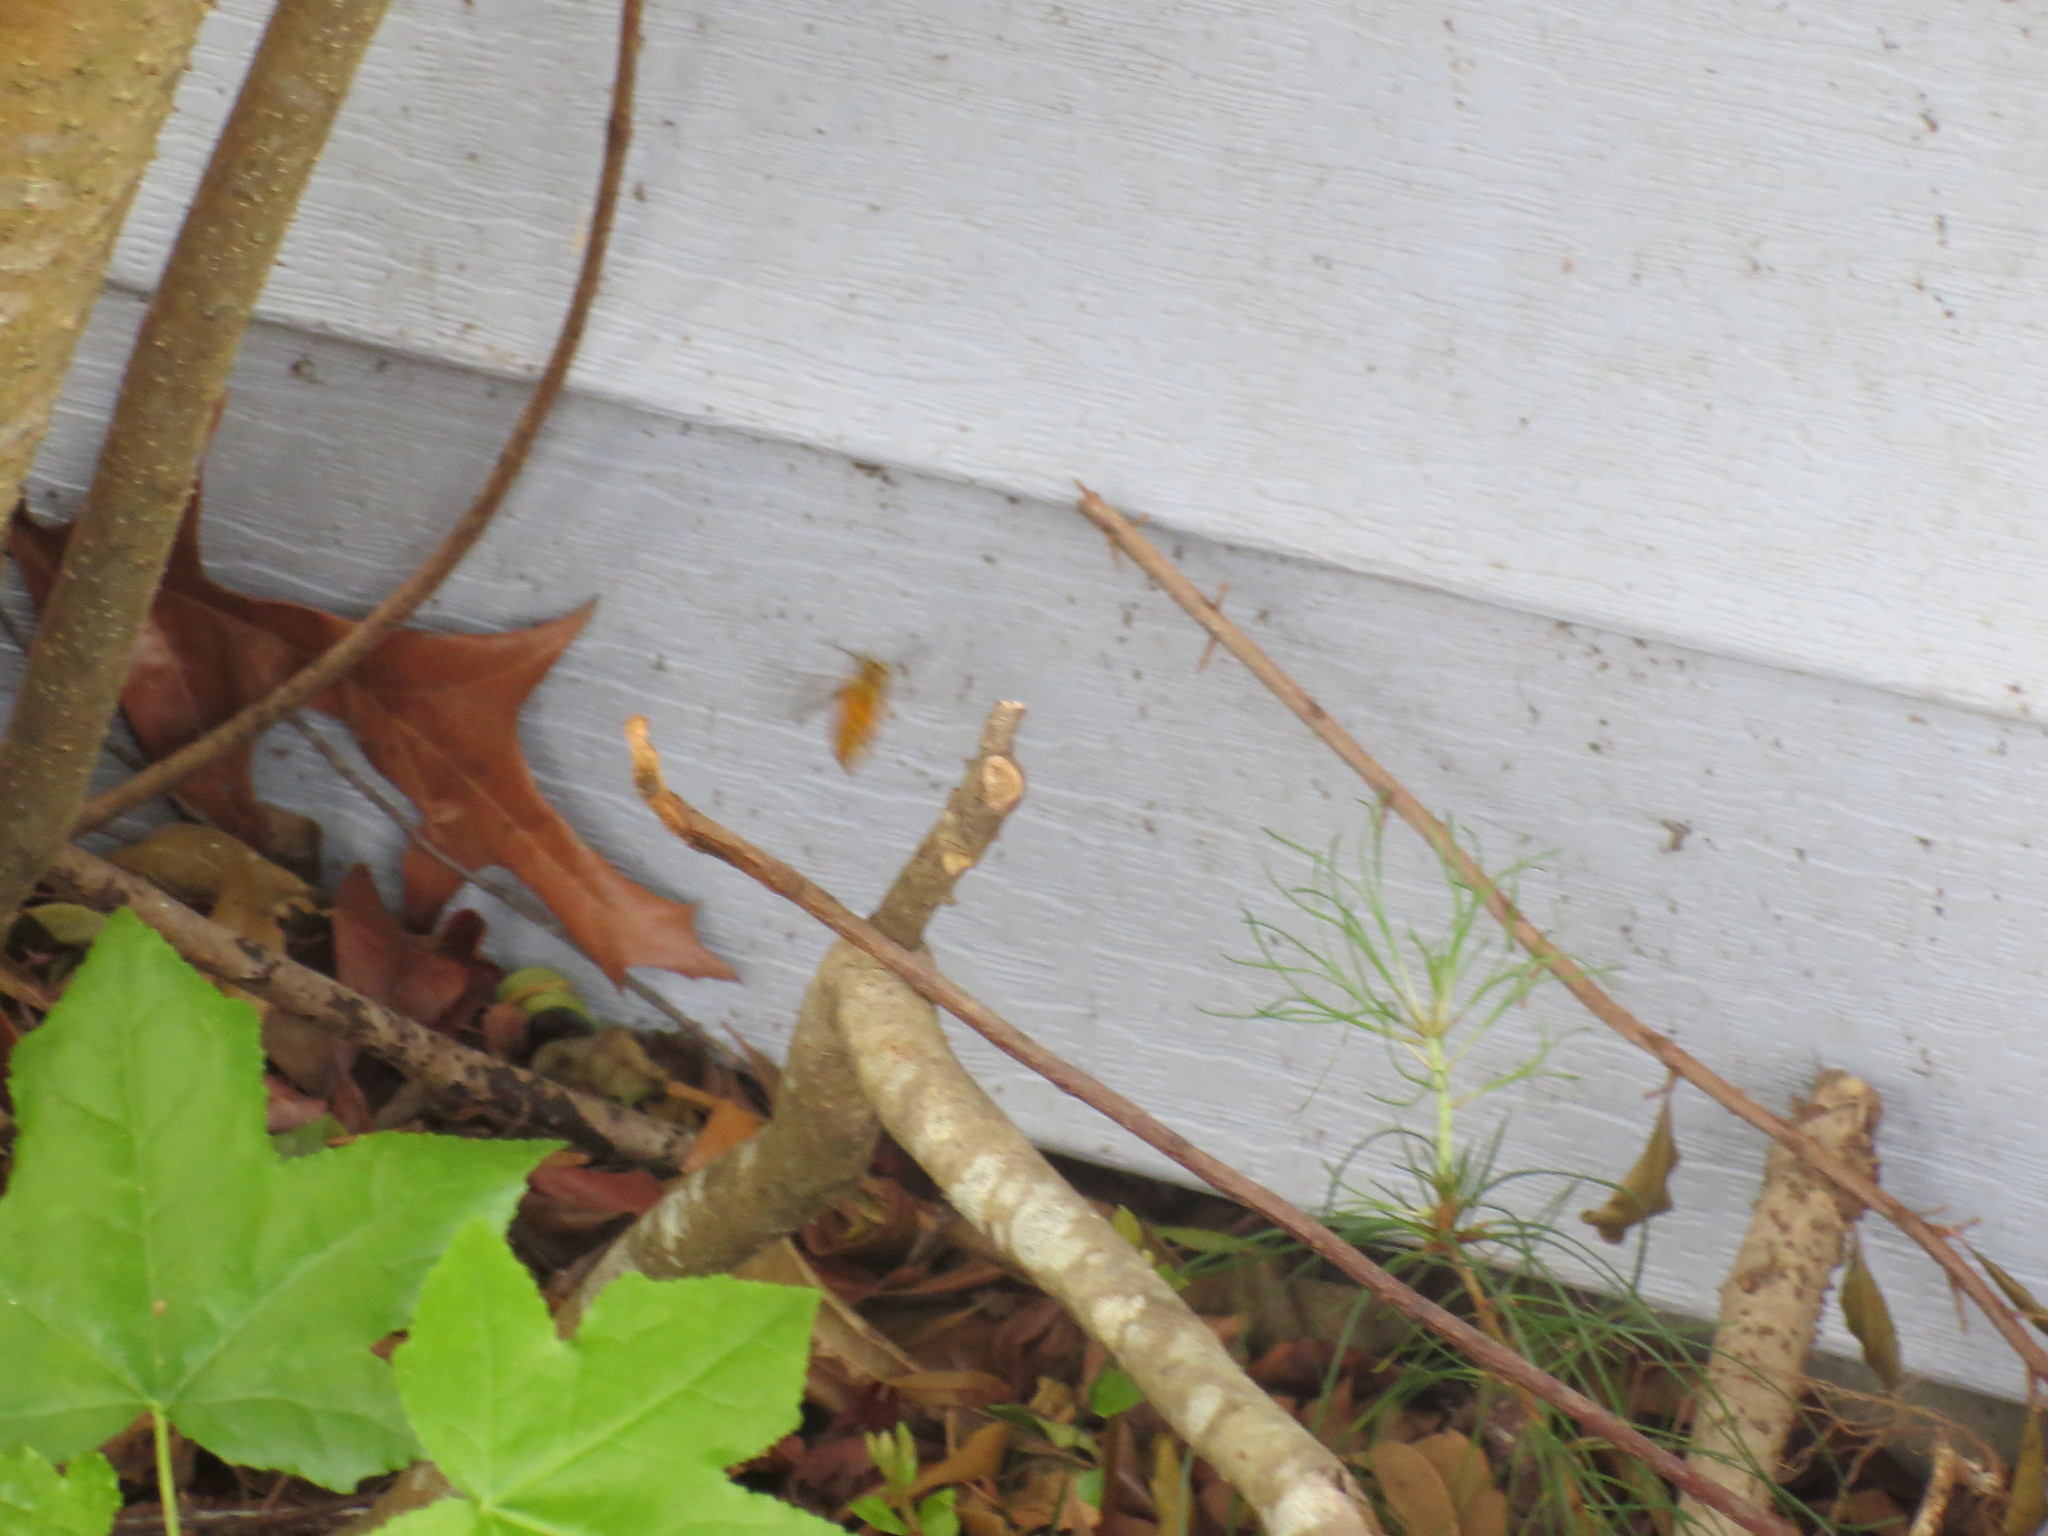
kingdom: Animalia
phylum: Arthropoda
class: Insecta
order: Hymenoptera
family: Vespidae
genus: Vespula
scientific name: Vespula squamosa
